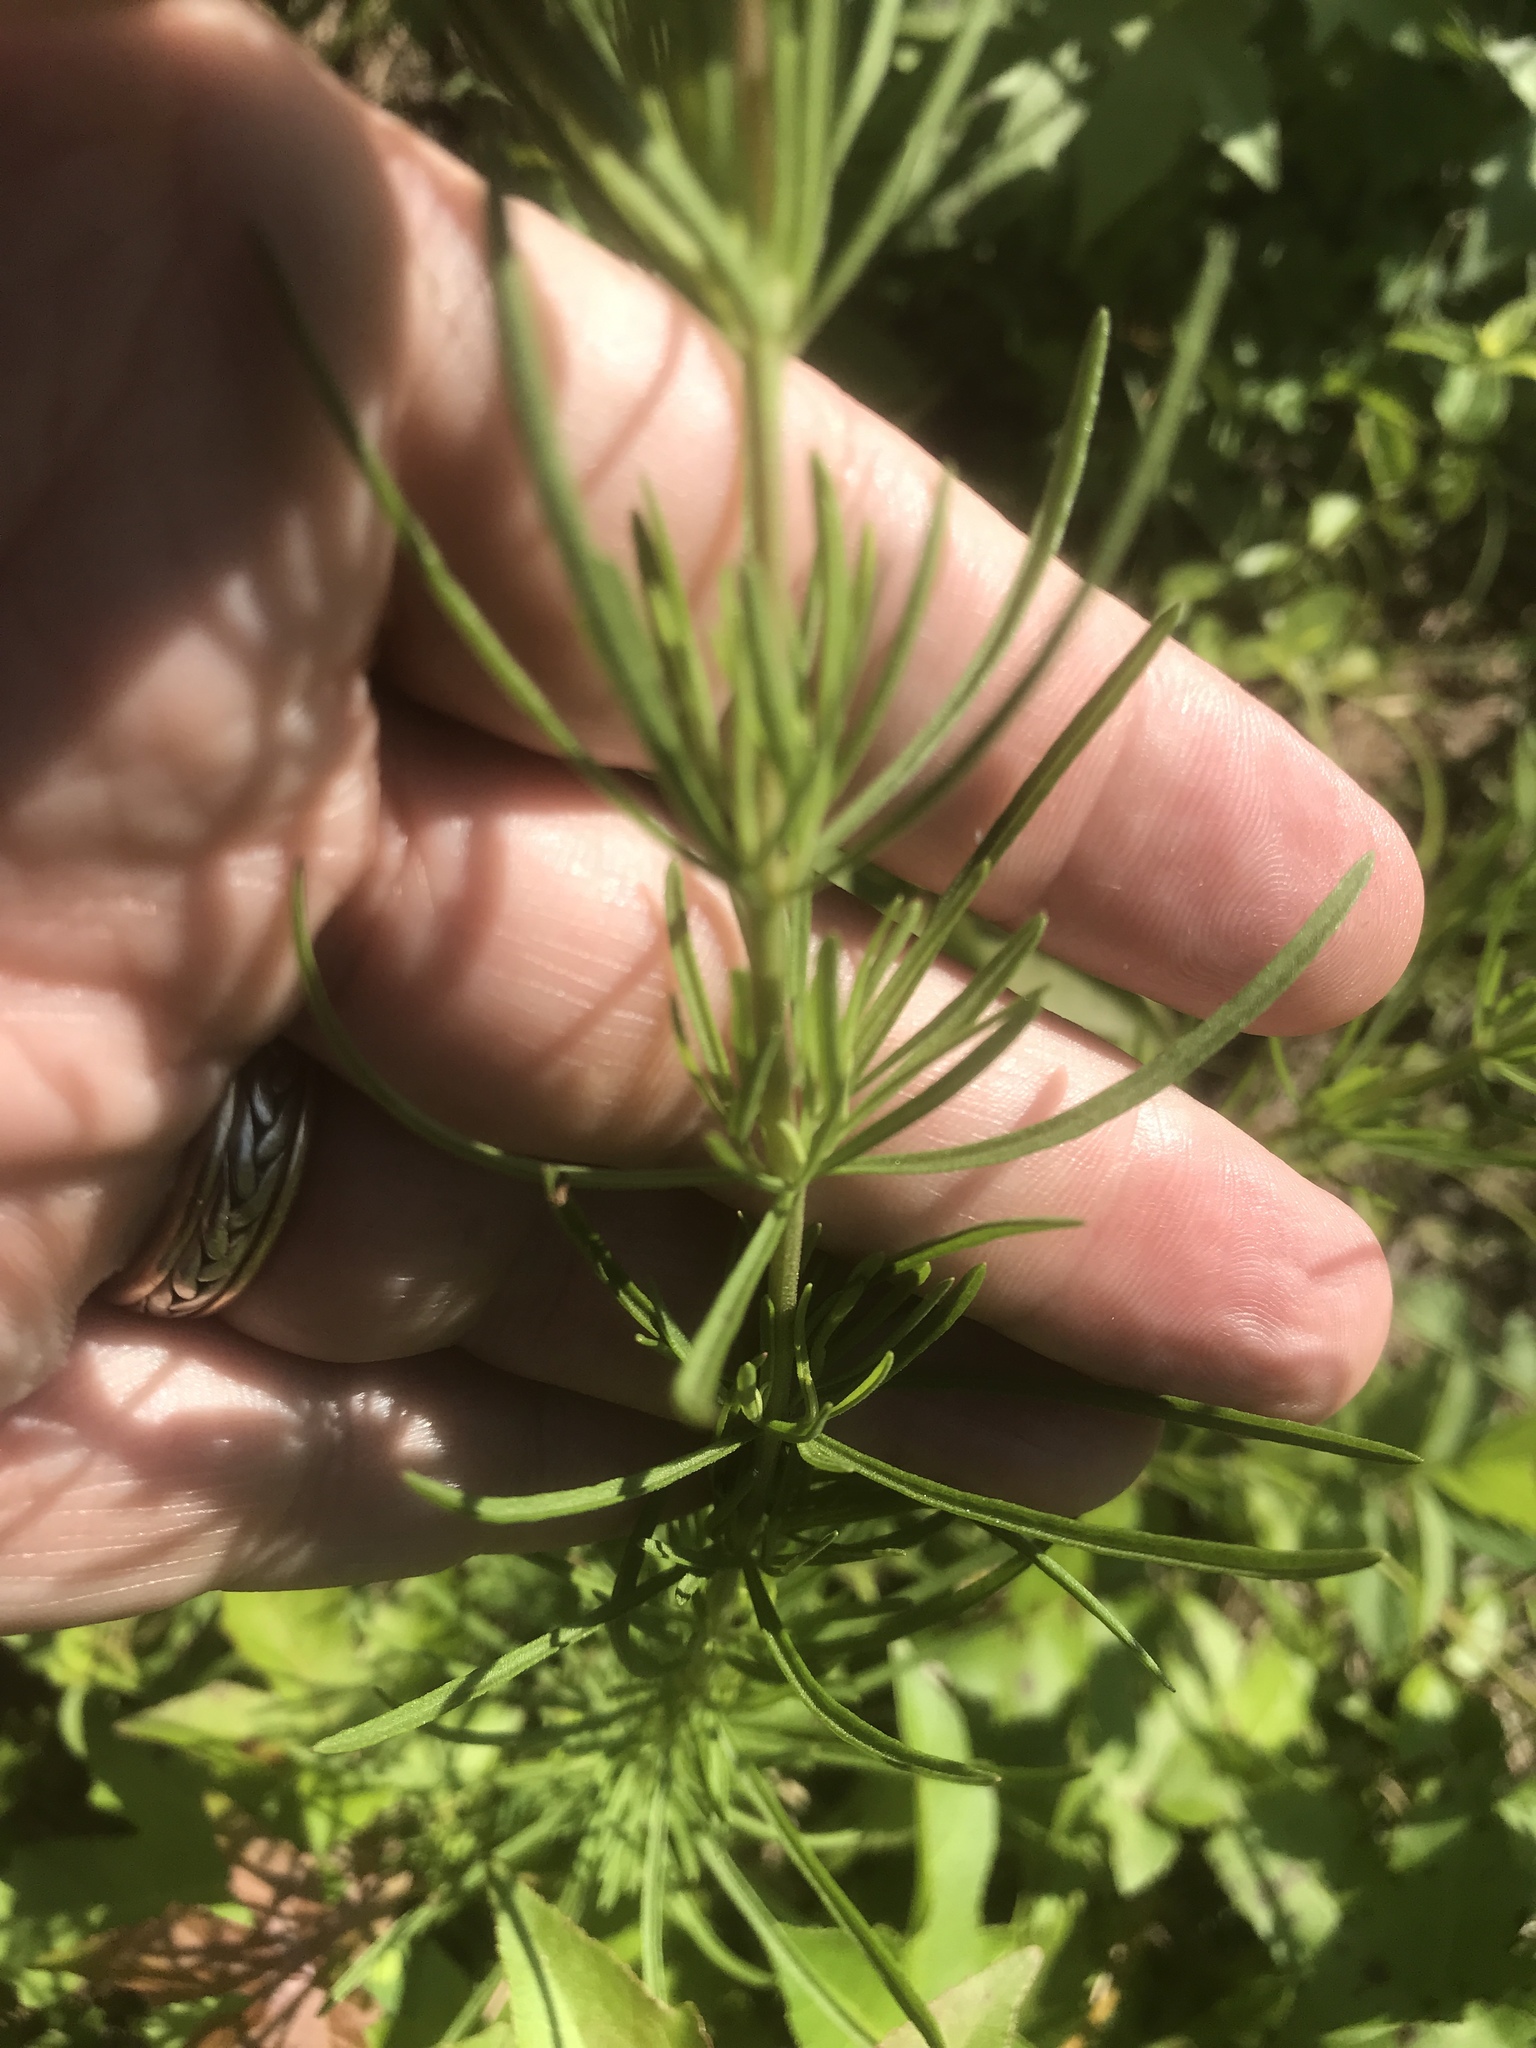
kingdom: Plantae
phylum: Tracheophyta
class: Magnoliopsida
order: Asterales
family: Asteraceae
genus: Eupatorium
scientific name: Eupatorium hyssopifolium
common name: Hyssop-leaf thoroughwort
